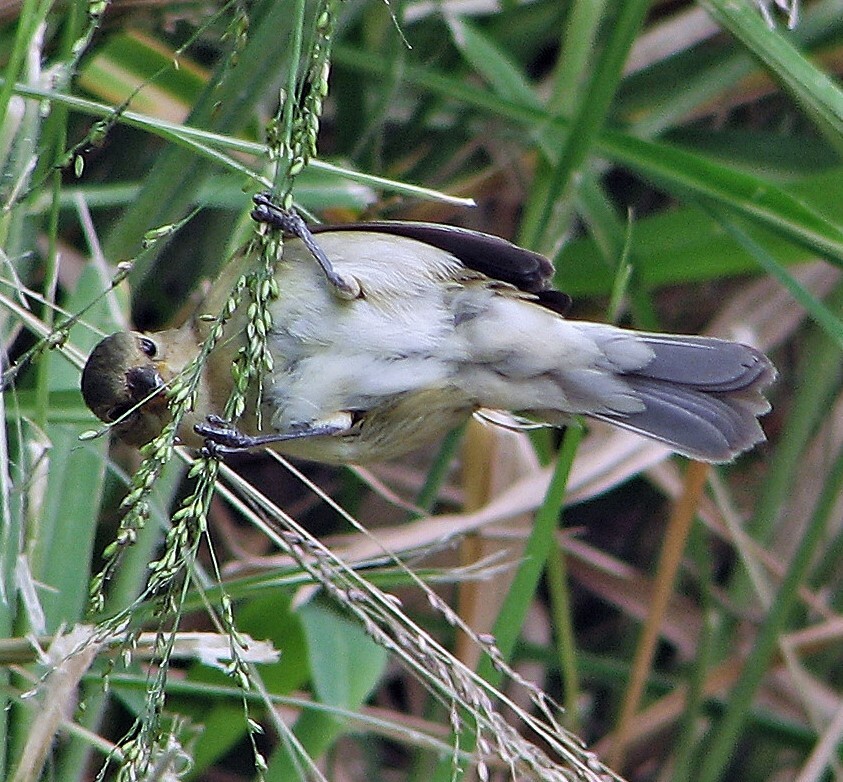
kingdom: Animalia
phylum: Chordata
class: Aves
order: Passeriformes
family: Thraupidae
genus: Sporophila
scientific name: Sporophila caerulescens
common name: Double-collared seedeater
